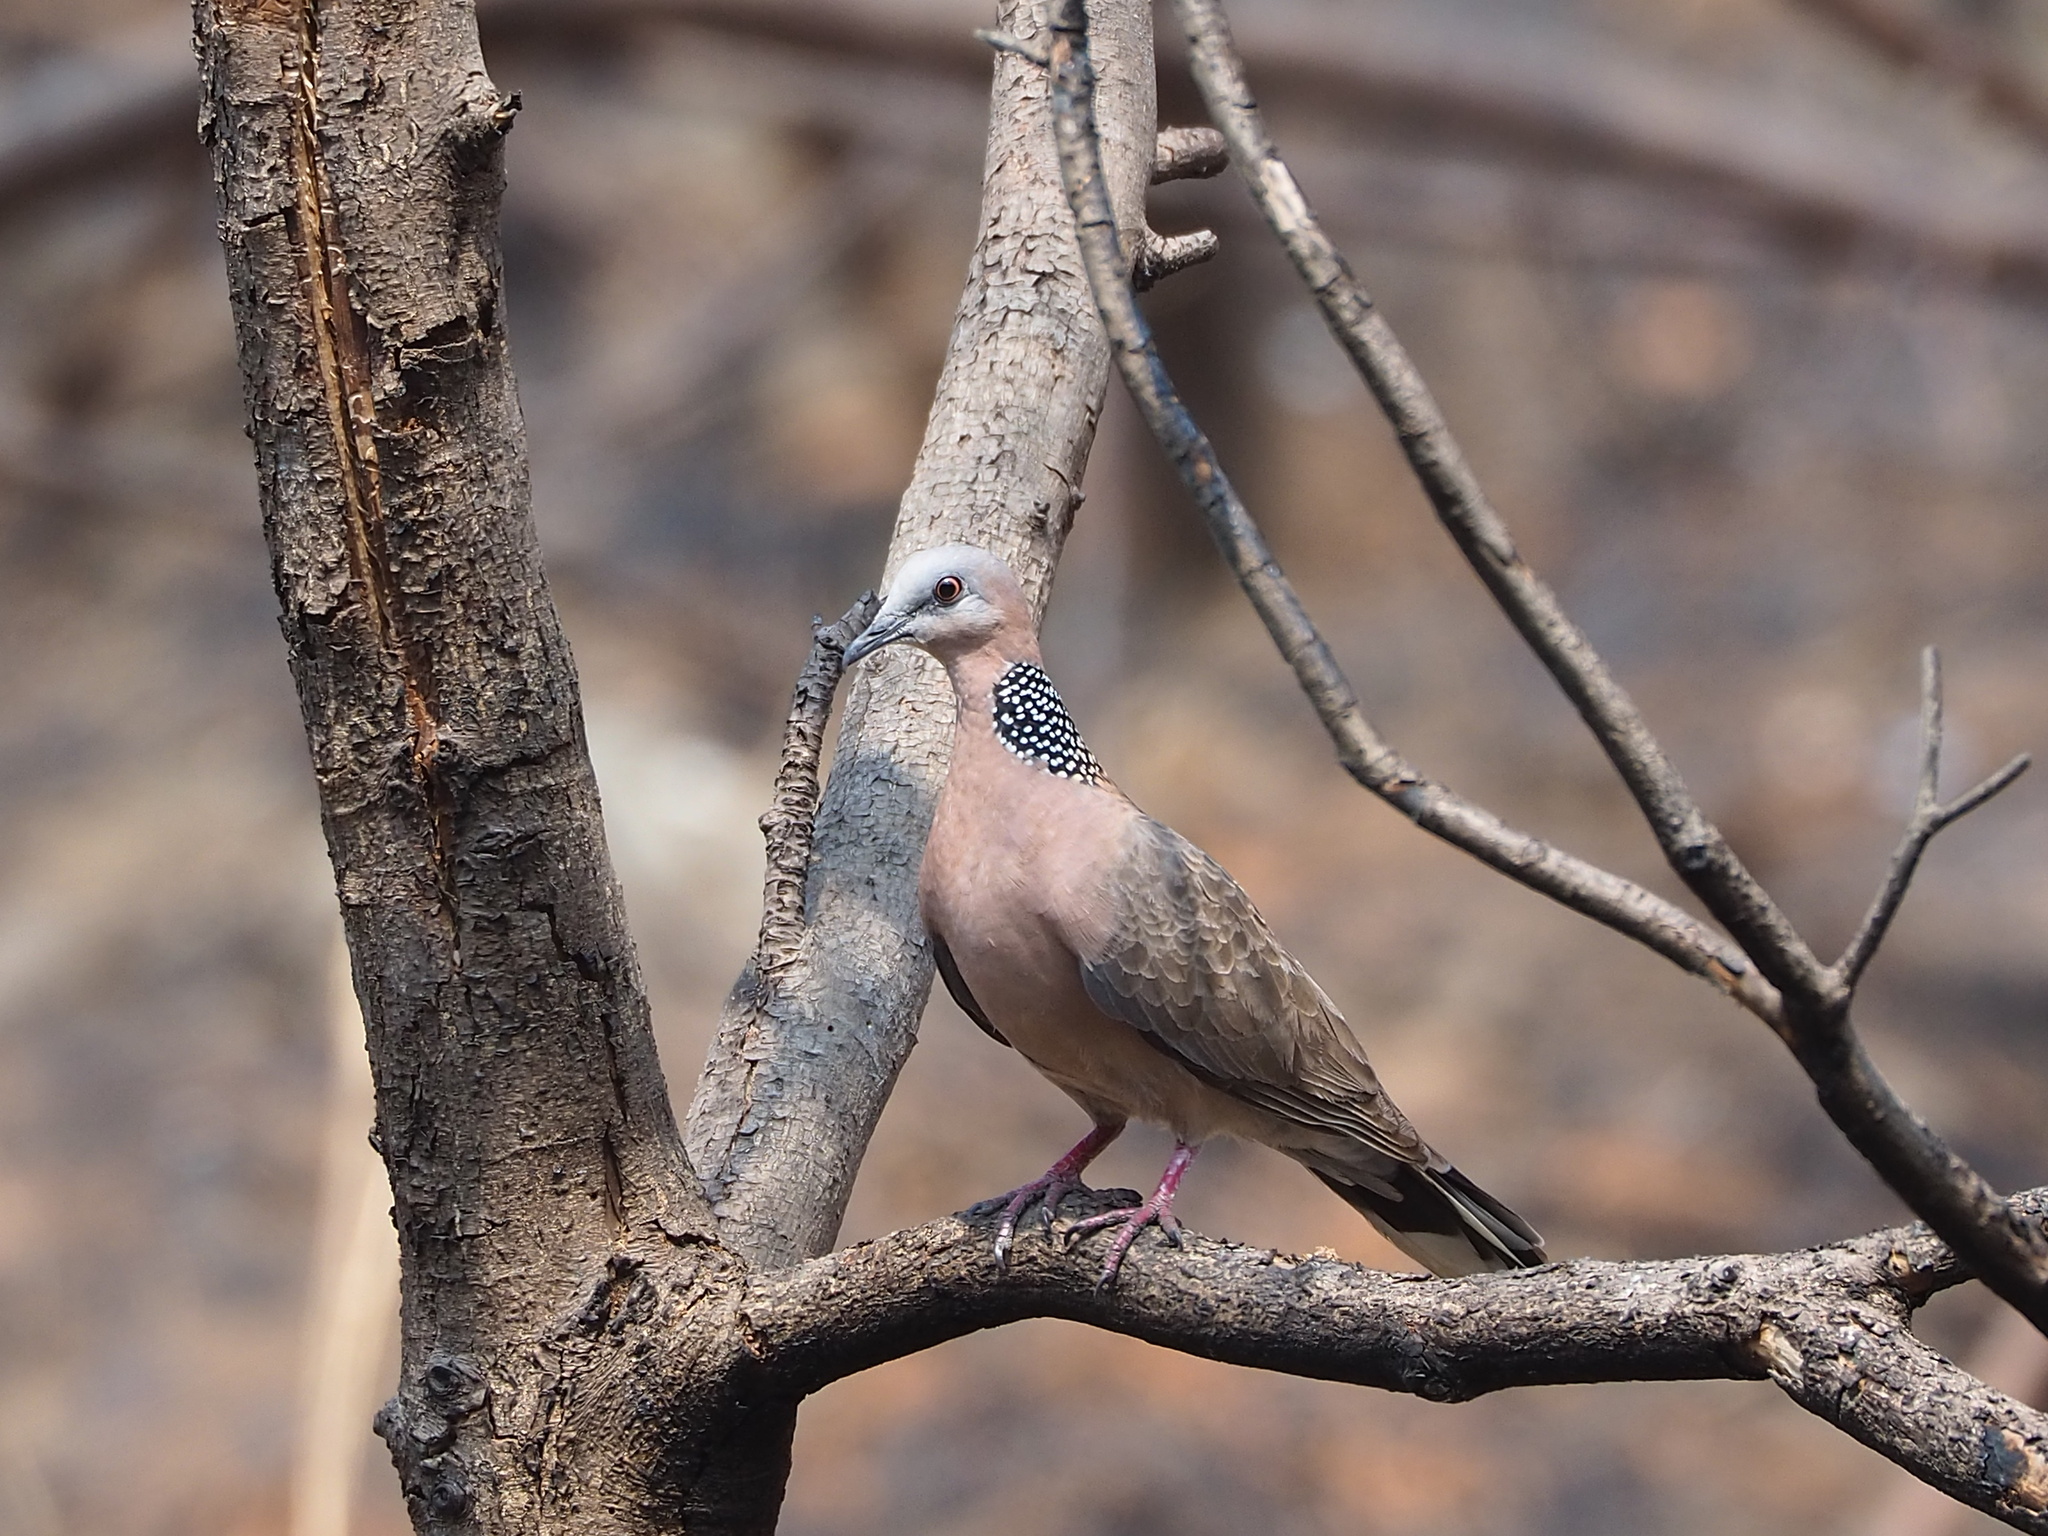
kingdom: Animalia
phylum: Chordata
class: Aves
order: Columbiformes
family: Columbidae
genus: Spilopelia
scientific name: Spilopelia chinensis
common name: Spotted dove
